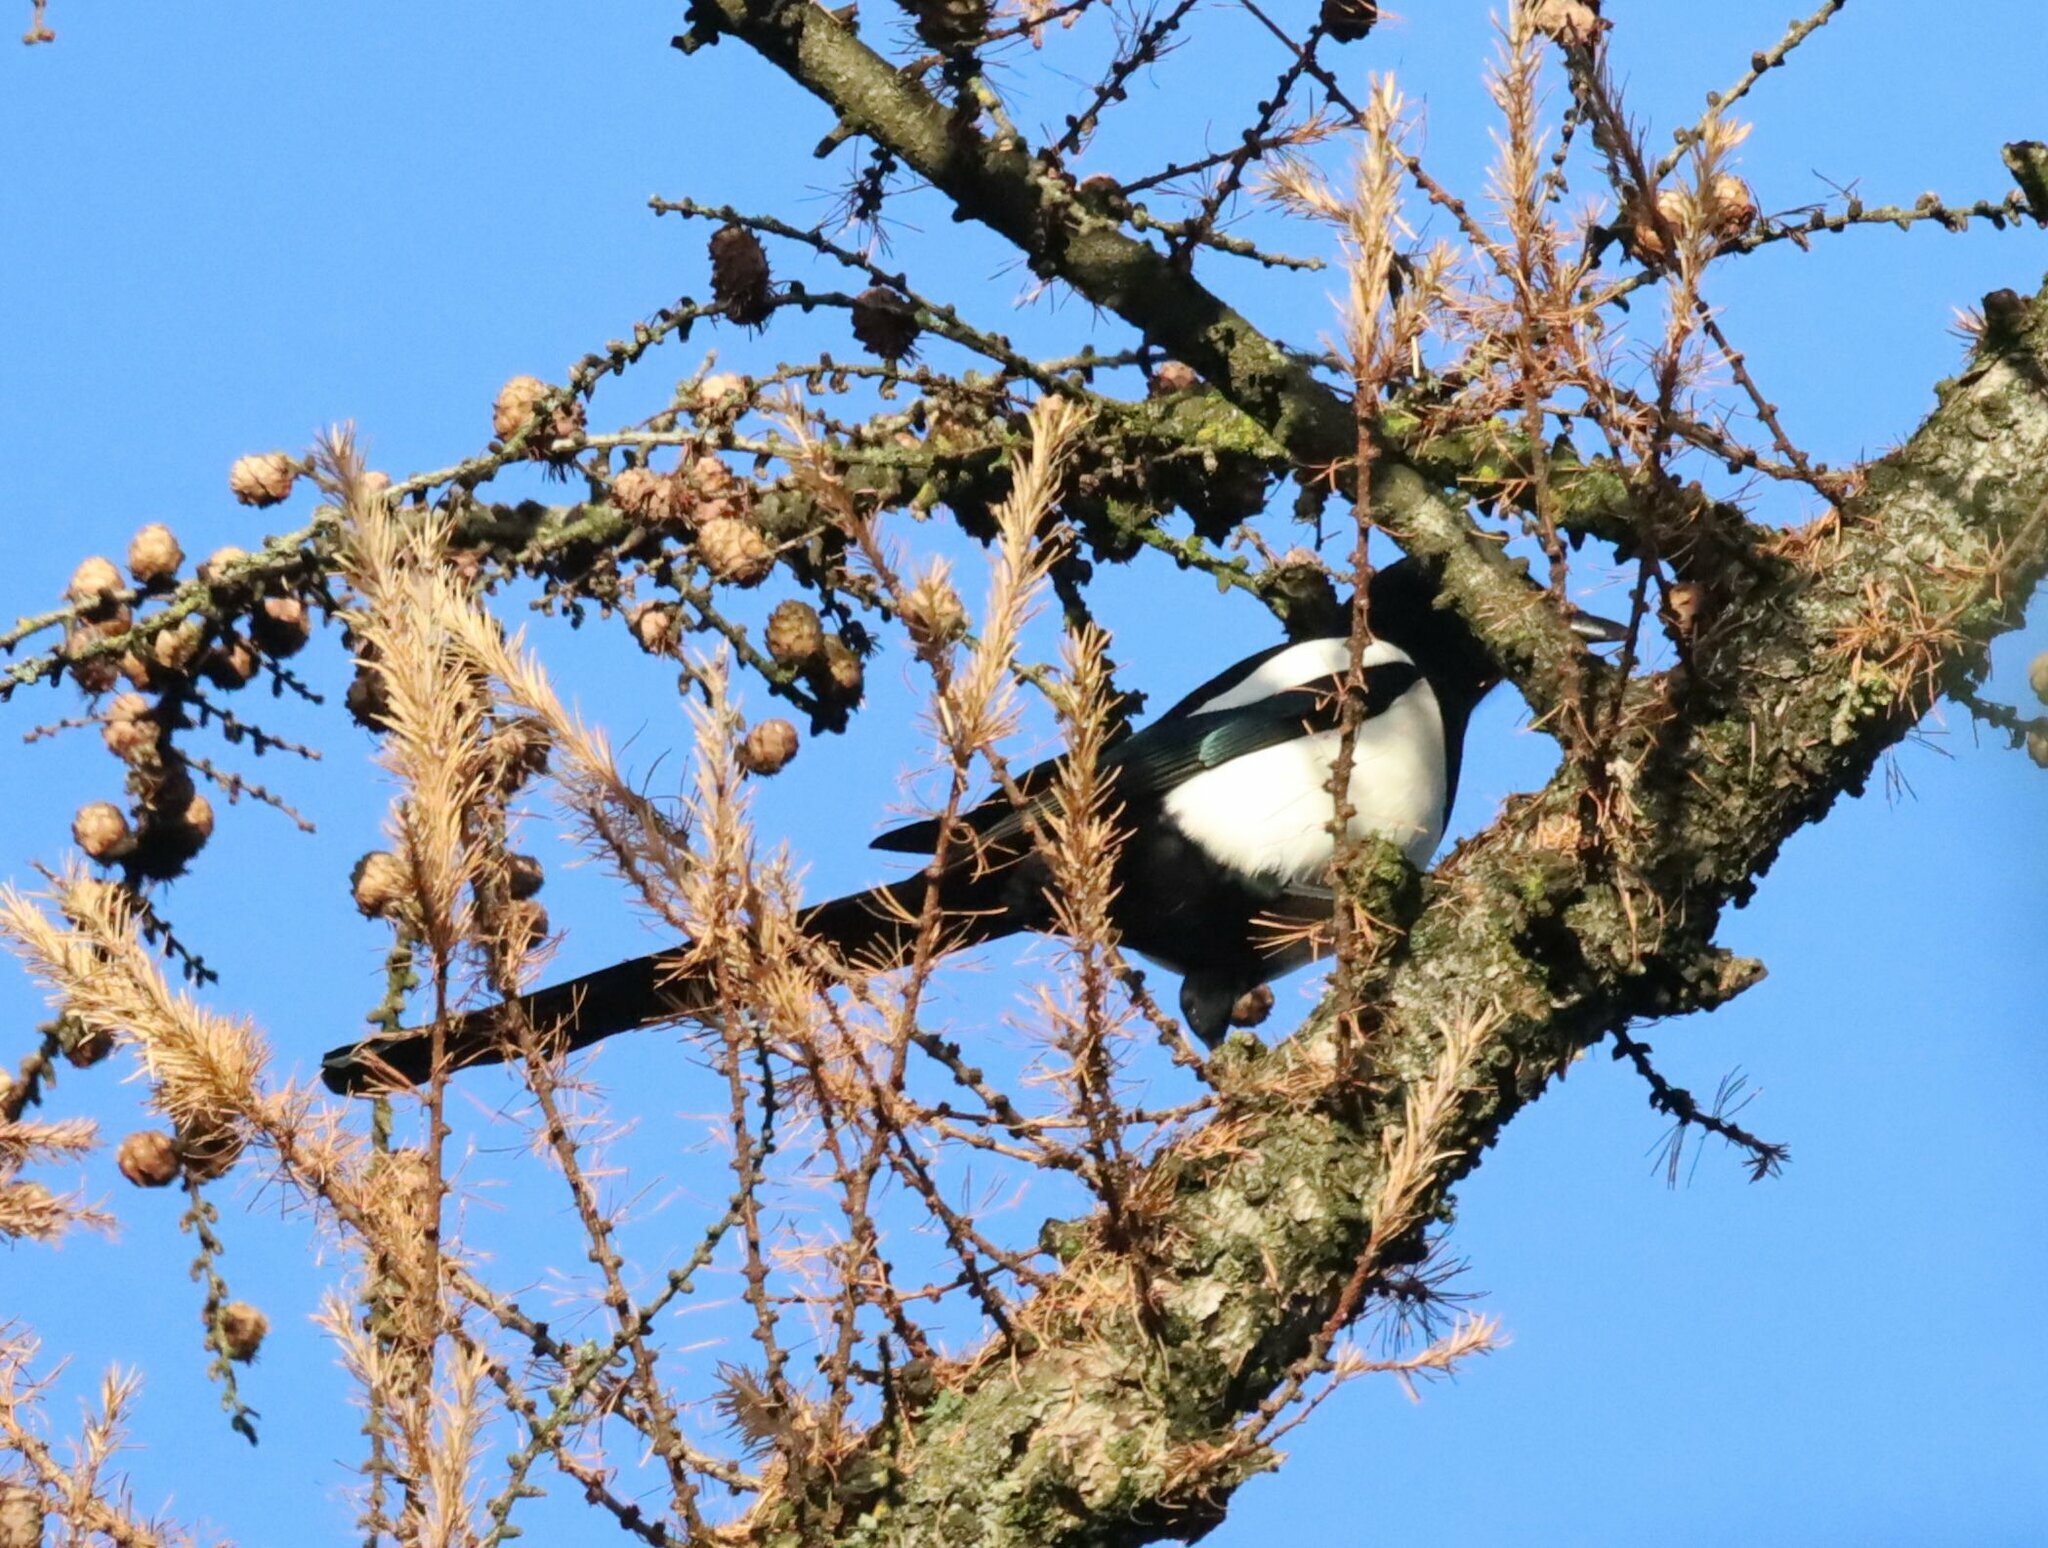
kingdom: Animalia
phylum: Chordata
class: Aves
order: Passeriformes
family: Corvidae
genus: Pica
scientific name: Pica pica
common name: Eurasian magpie
